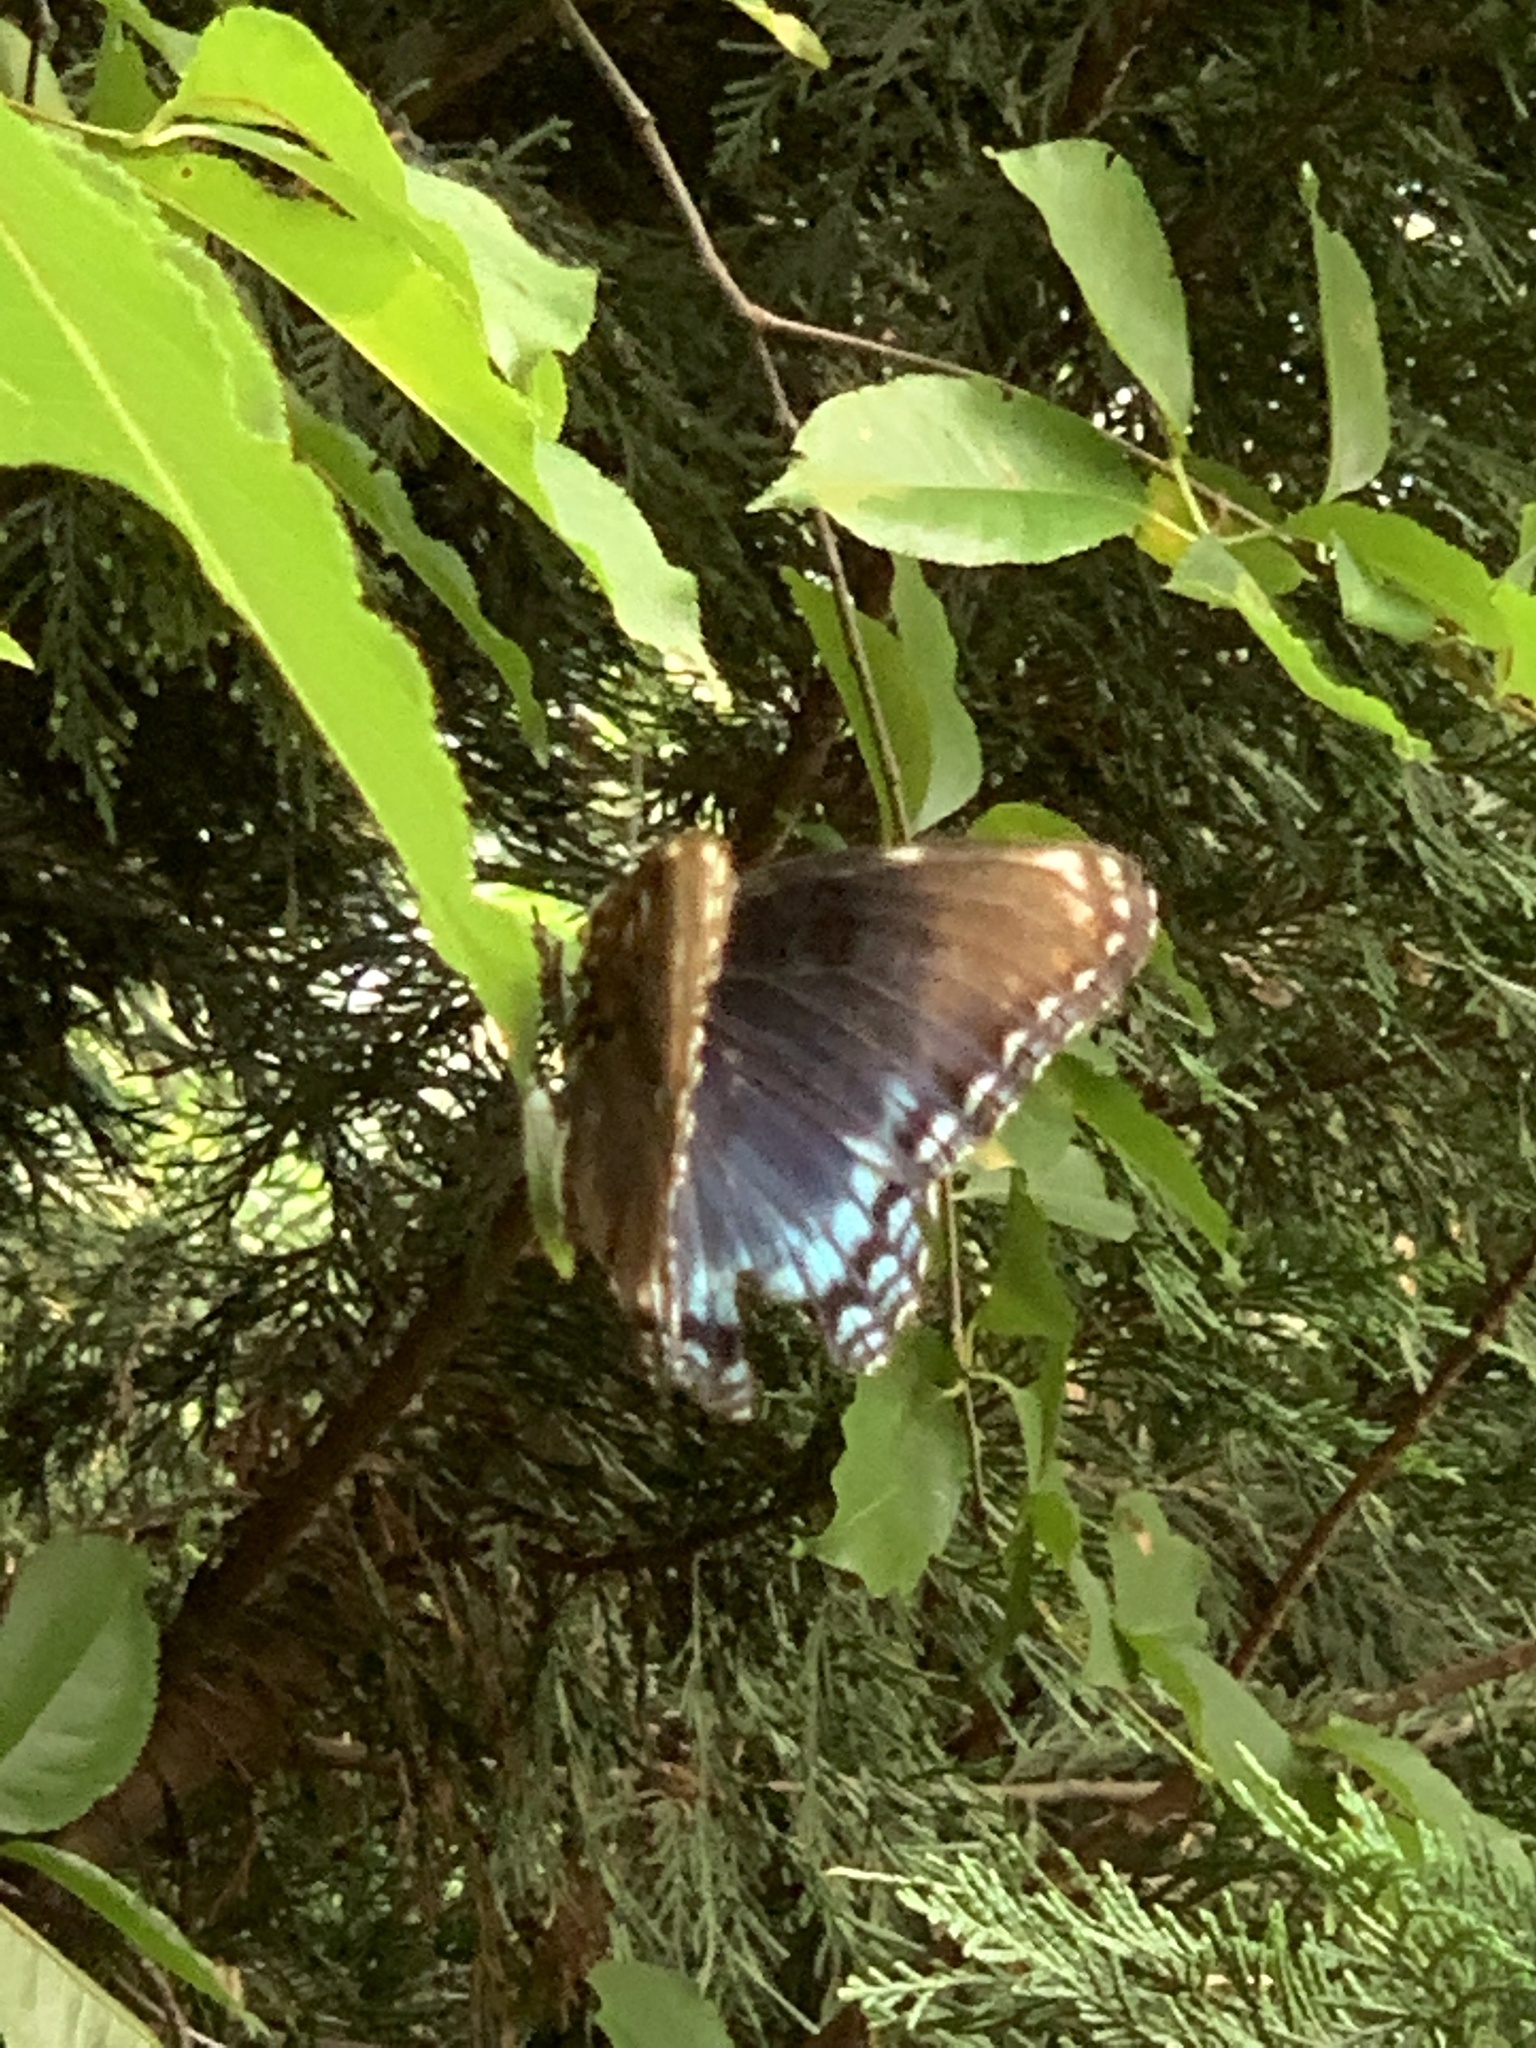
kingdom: Animalia
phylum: Arthropoda
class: Insecta
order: Lepidoptera
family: Nymphalidae
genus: Limenitis
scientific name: Limenitis astyanax
